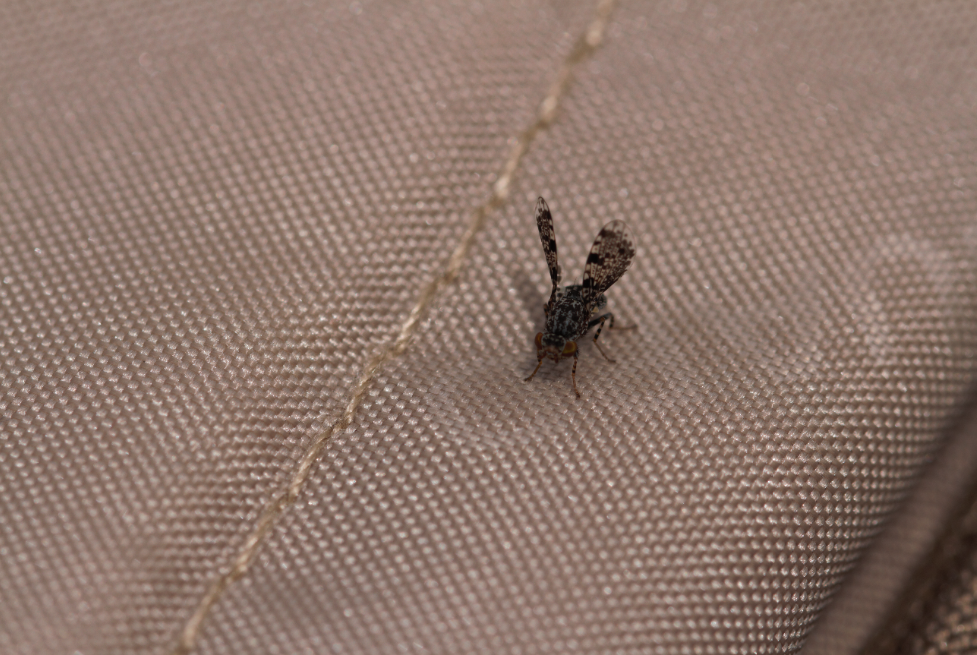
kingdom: Animalia
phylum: Arthropoda
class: Insecta
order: Diptera
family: Ulidiidae
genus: Callopistromyia
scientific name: Callopistromyia annulipes
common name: Peacock fly
